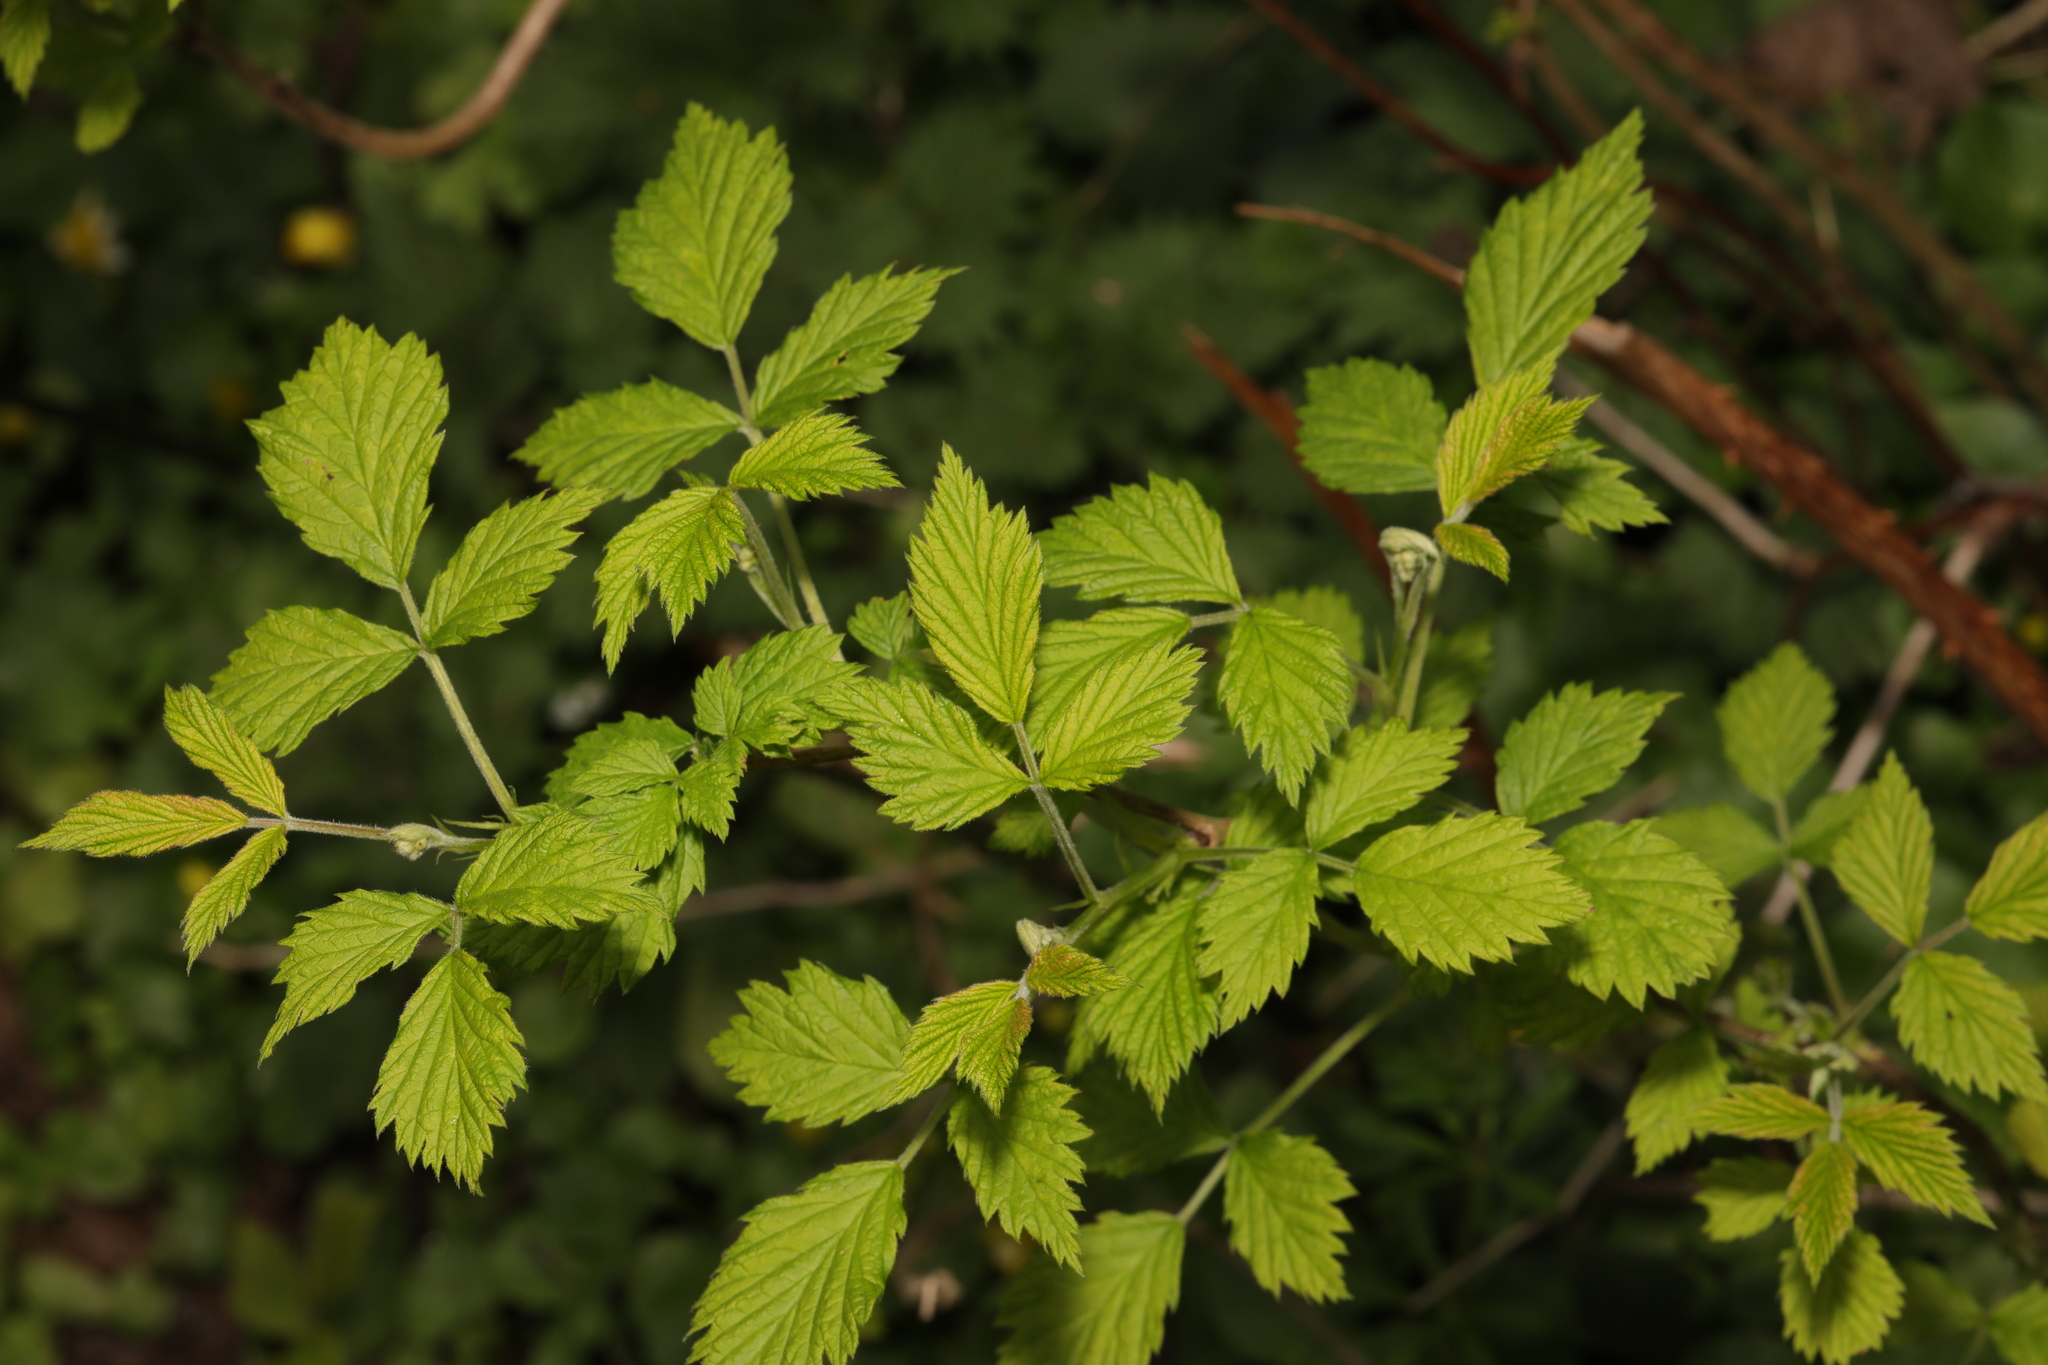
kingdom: Plantae
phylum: Tracheophyta
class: Magnoliopsida
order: Rosales
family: Rosaceae
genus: Rubus
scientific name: Rubus idaeus
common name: Raspberry
